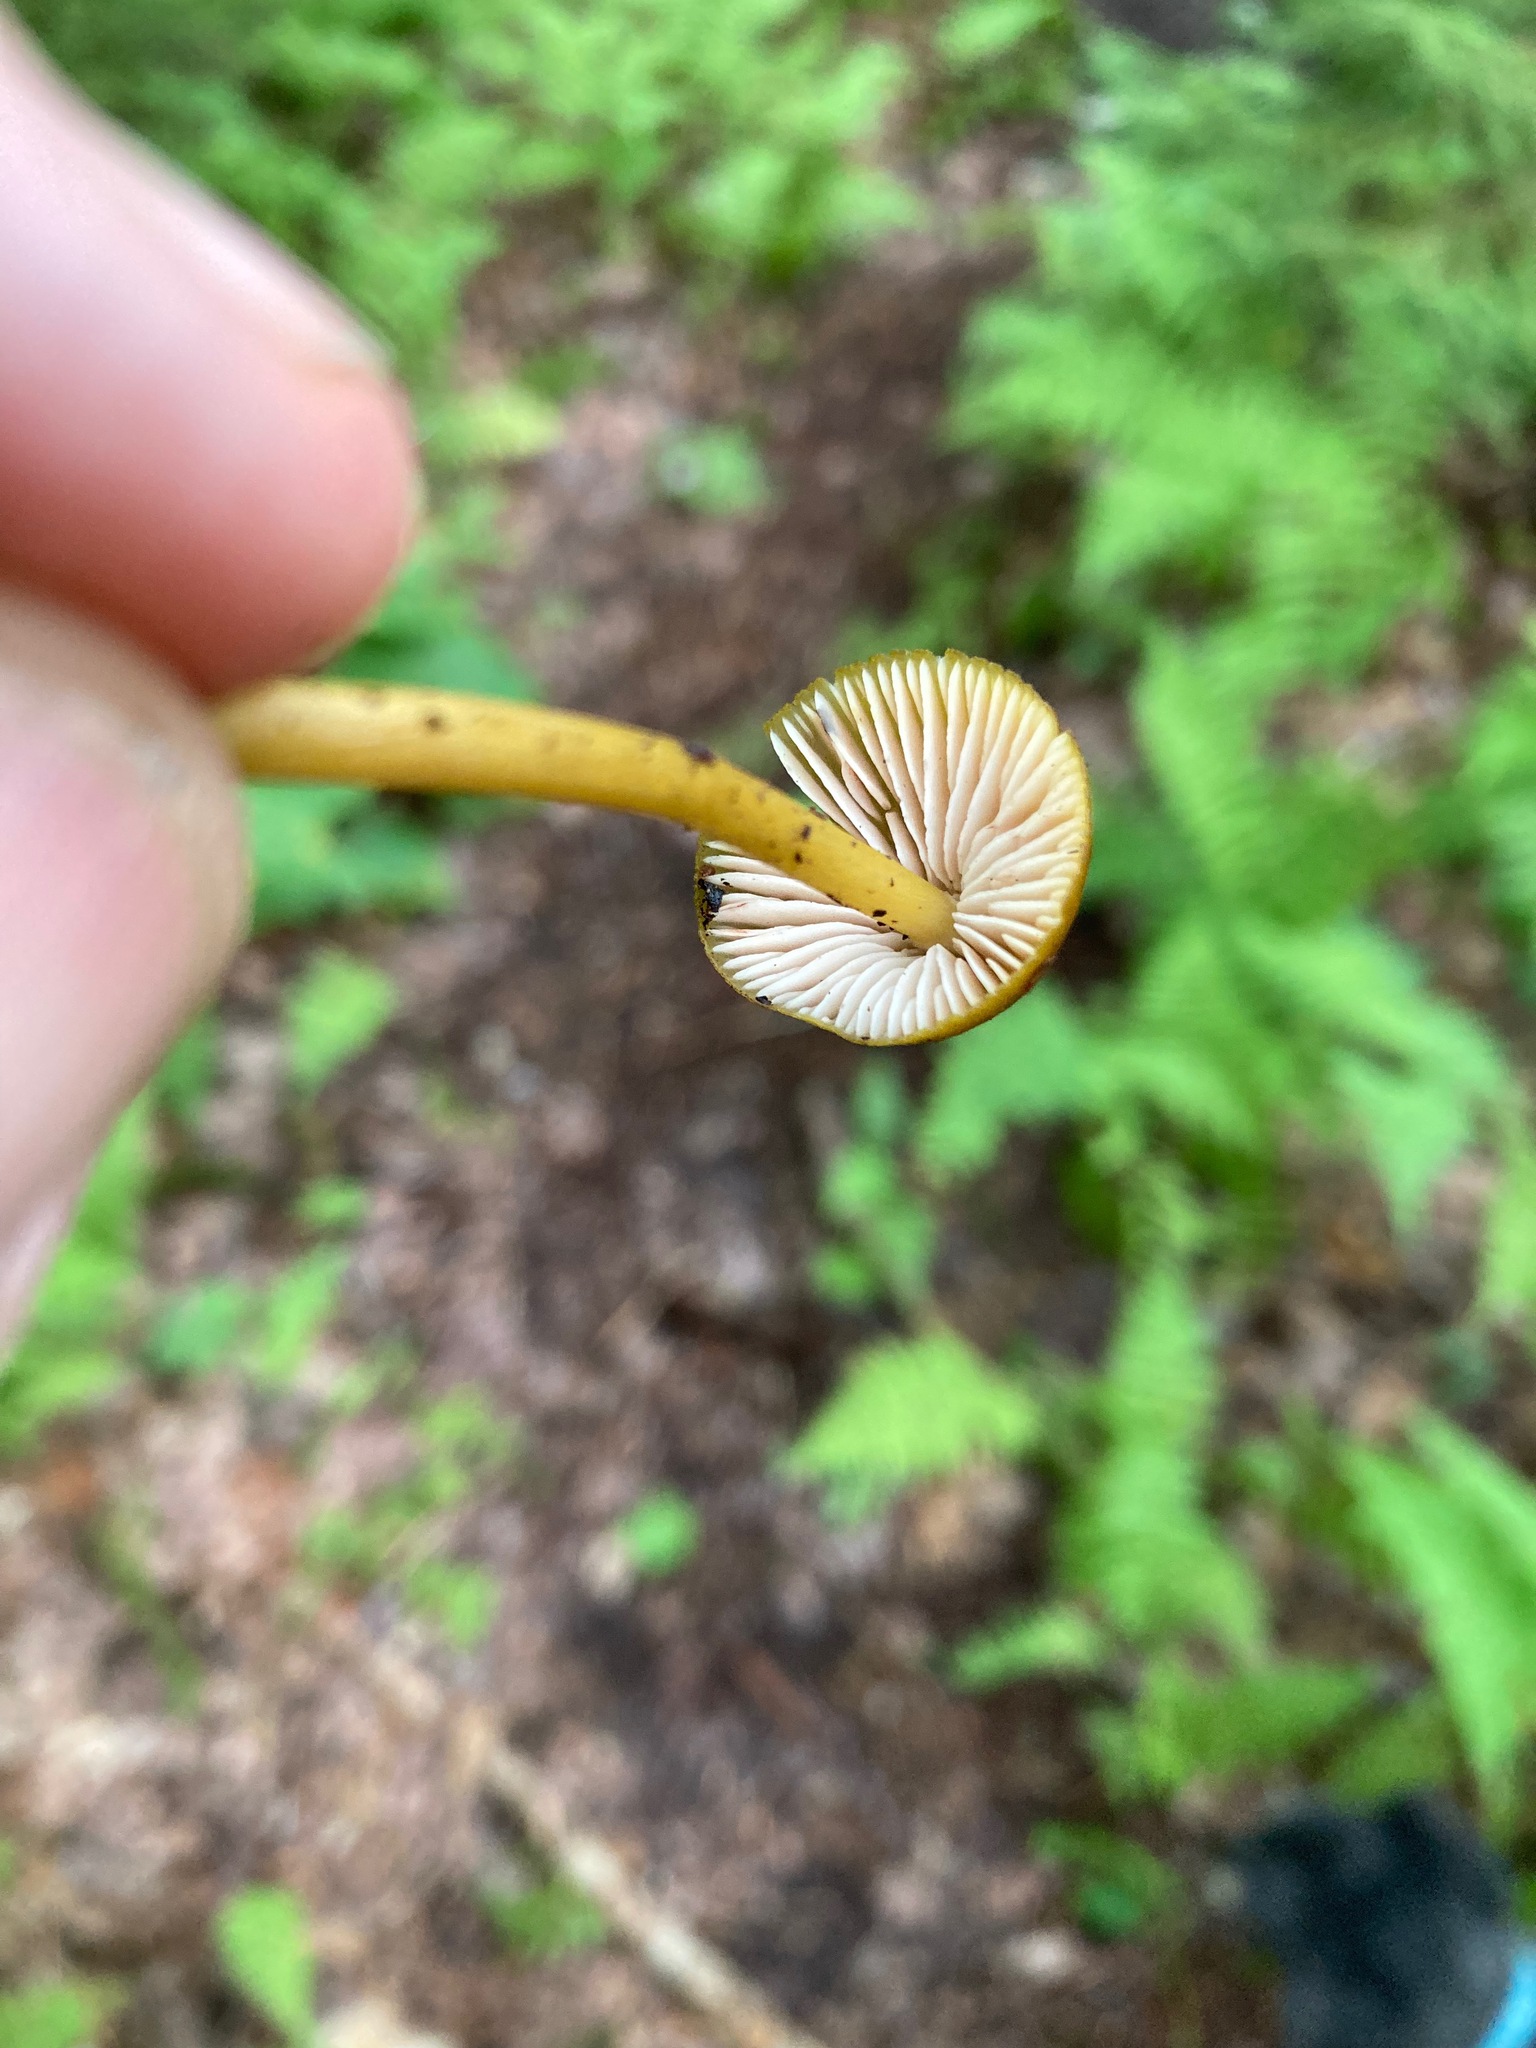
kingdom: Fungi
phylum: Basidiomycota
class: Agaricomycetes
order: Agaricales
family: Entolomataceae
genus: Entoloma
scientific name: Entoloma luteum
